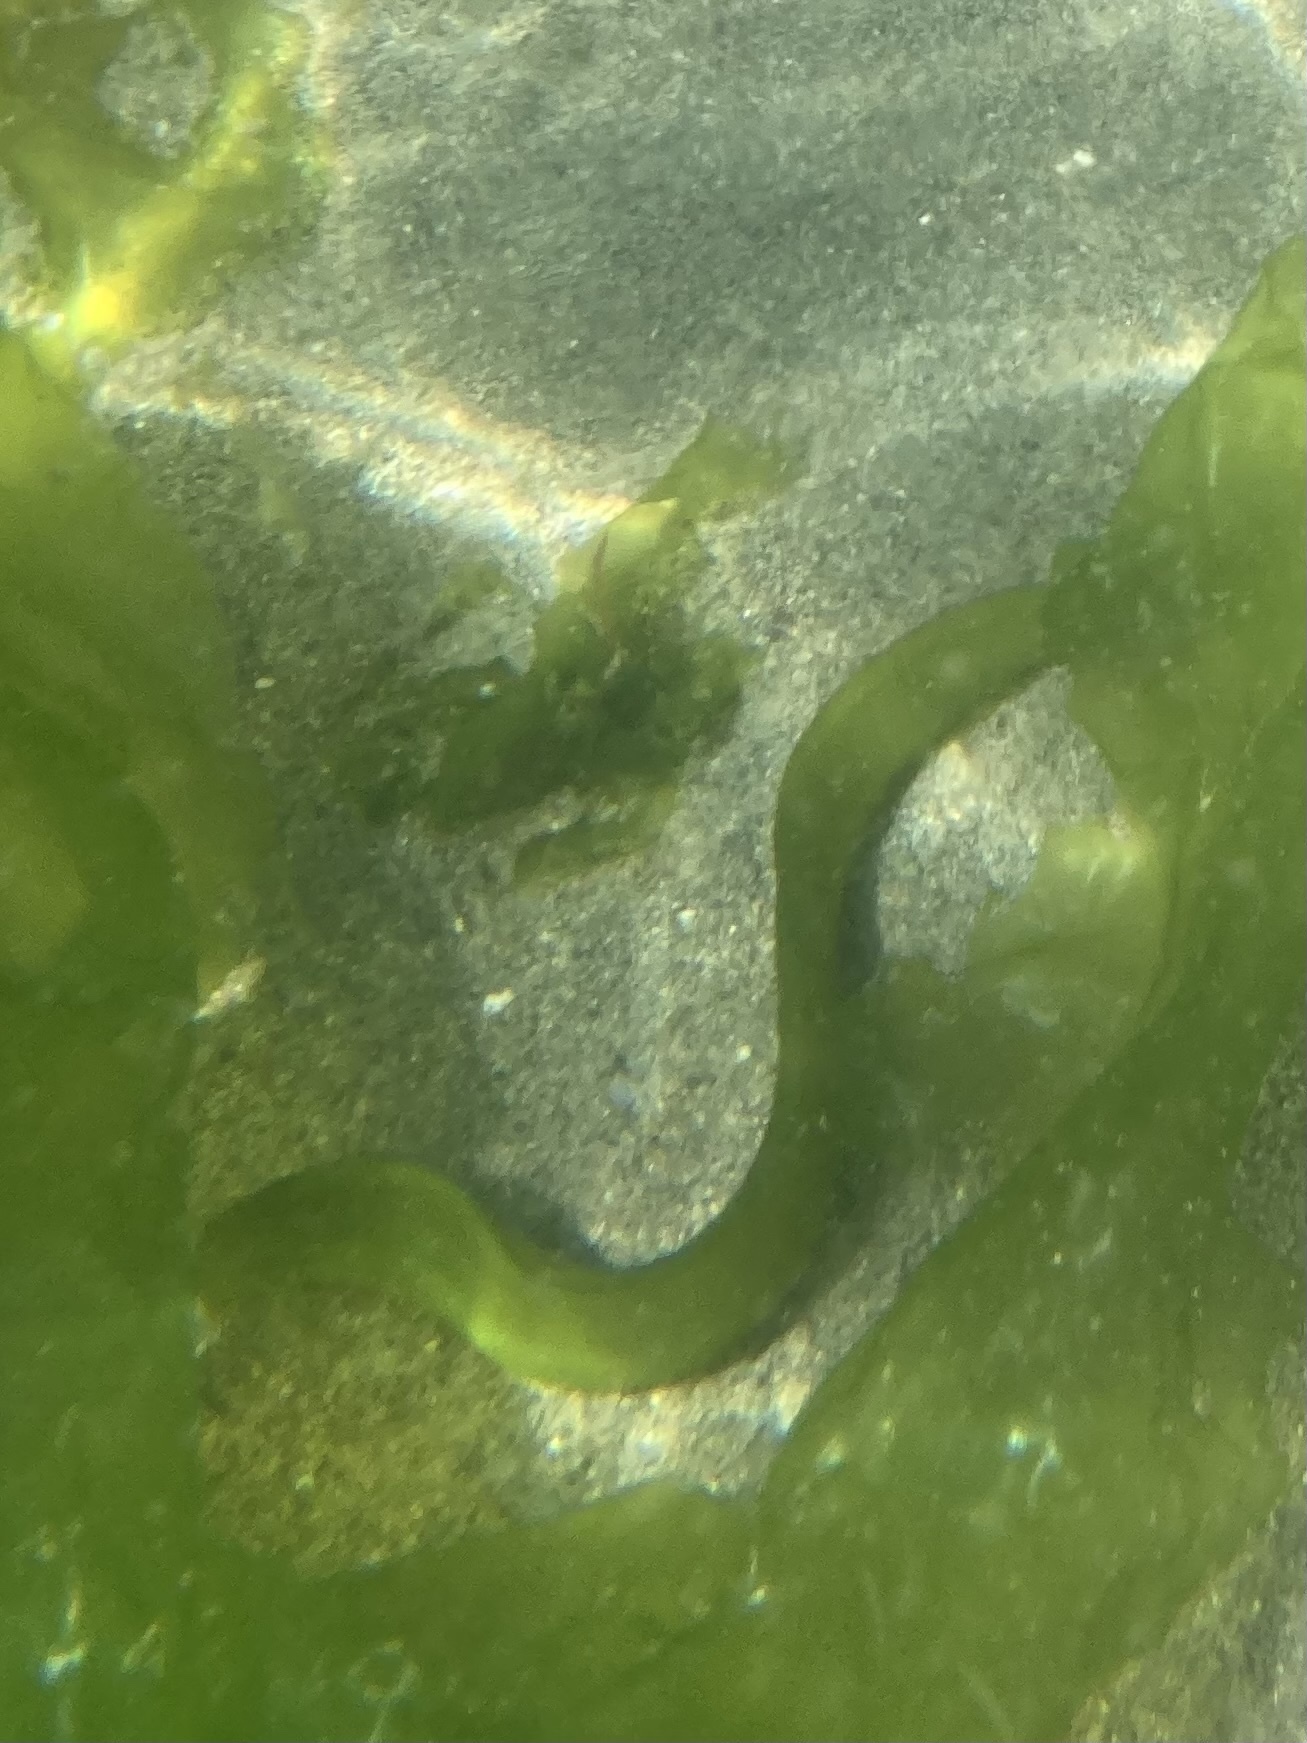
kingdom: Animalia
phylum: Chordata
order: Perciformes
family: Pholidae
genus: Apodichthys
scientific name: Apodichthys flavidus
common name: Penpoint gunnel
